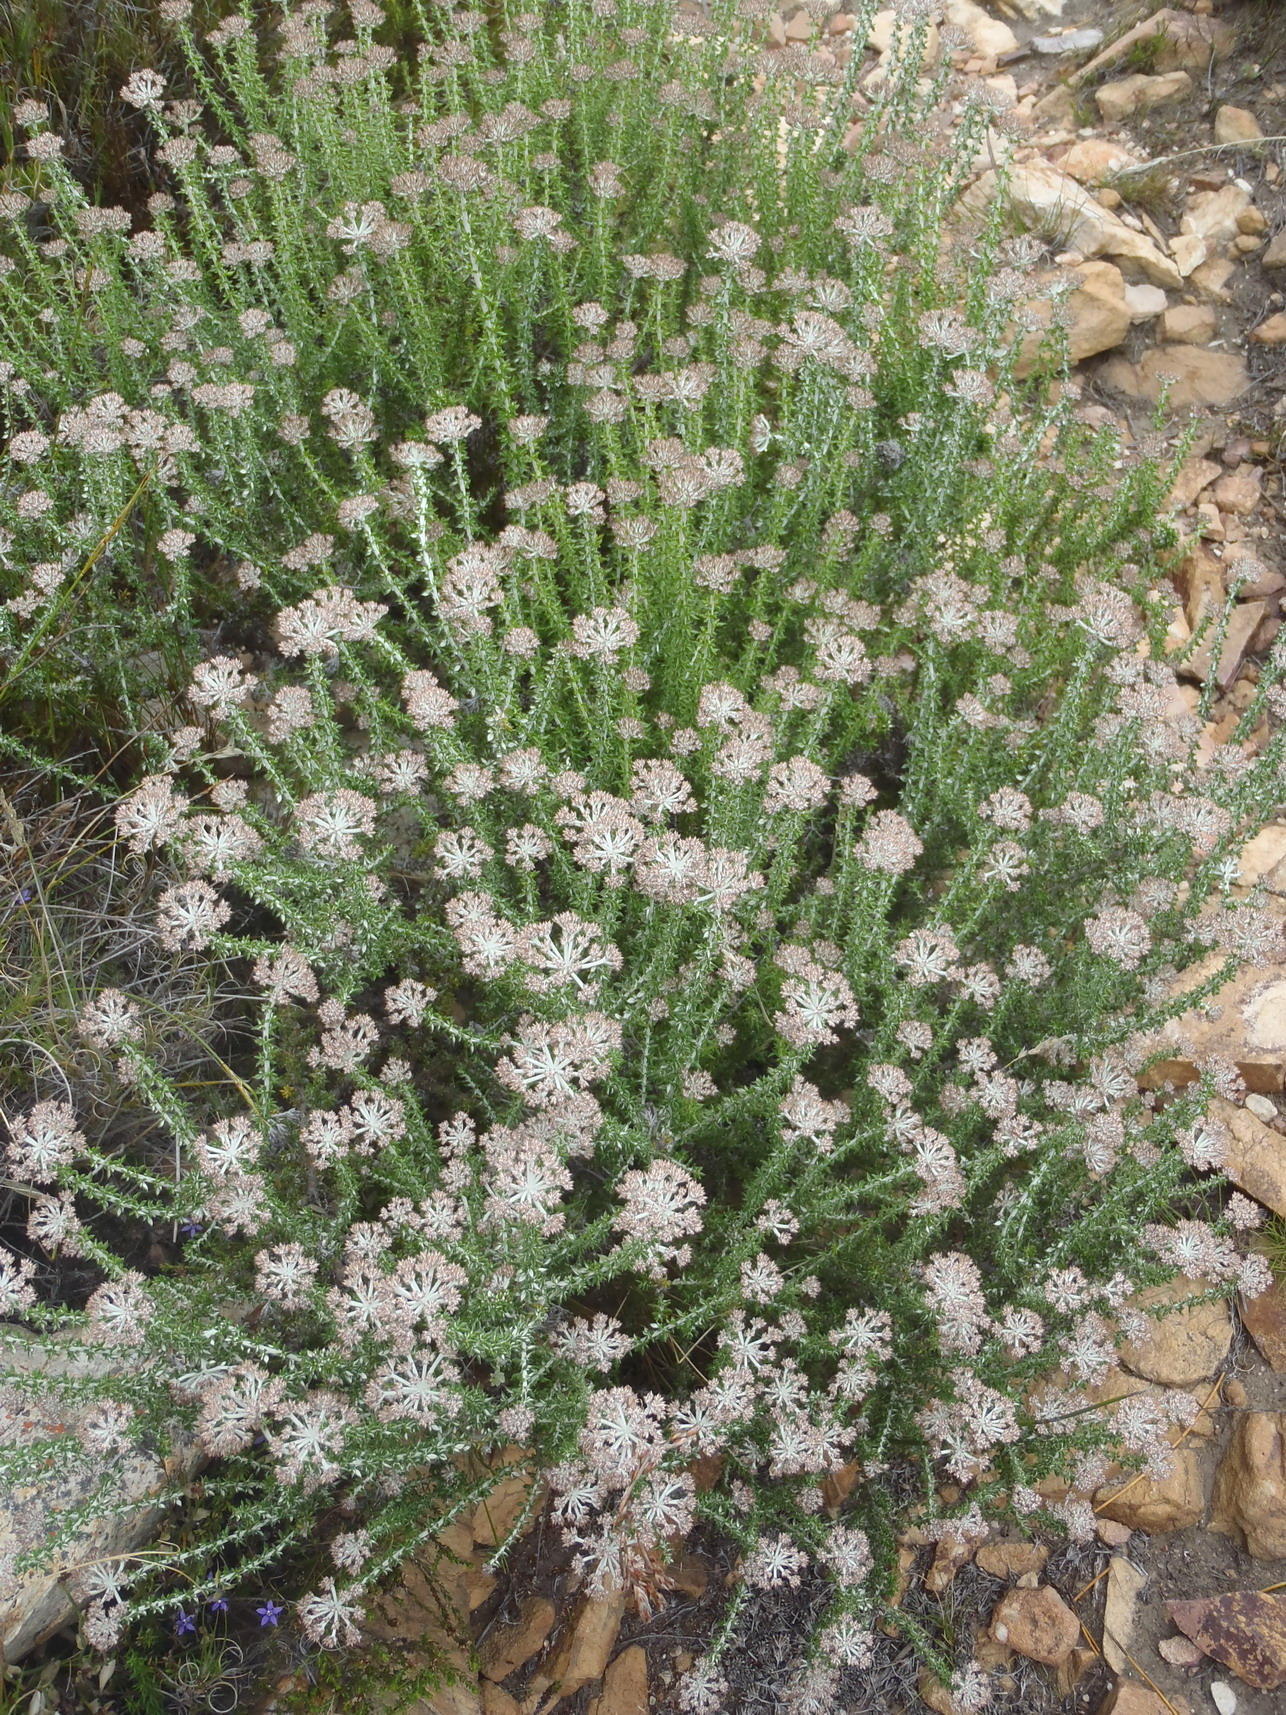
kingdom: Plantae
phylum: Tracheophyta
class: Magnoliopsida
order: Asterales
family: Asteraceae
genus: Metalasia
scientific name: Metalasia densa
